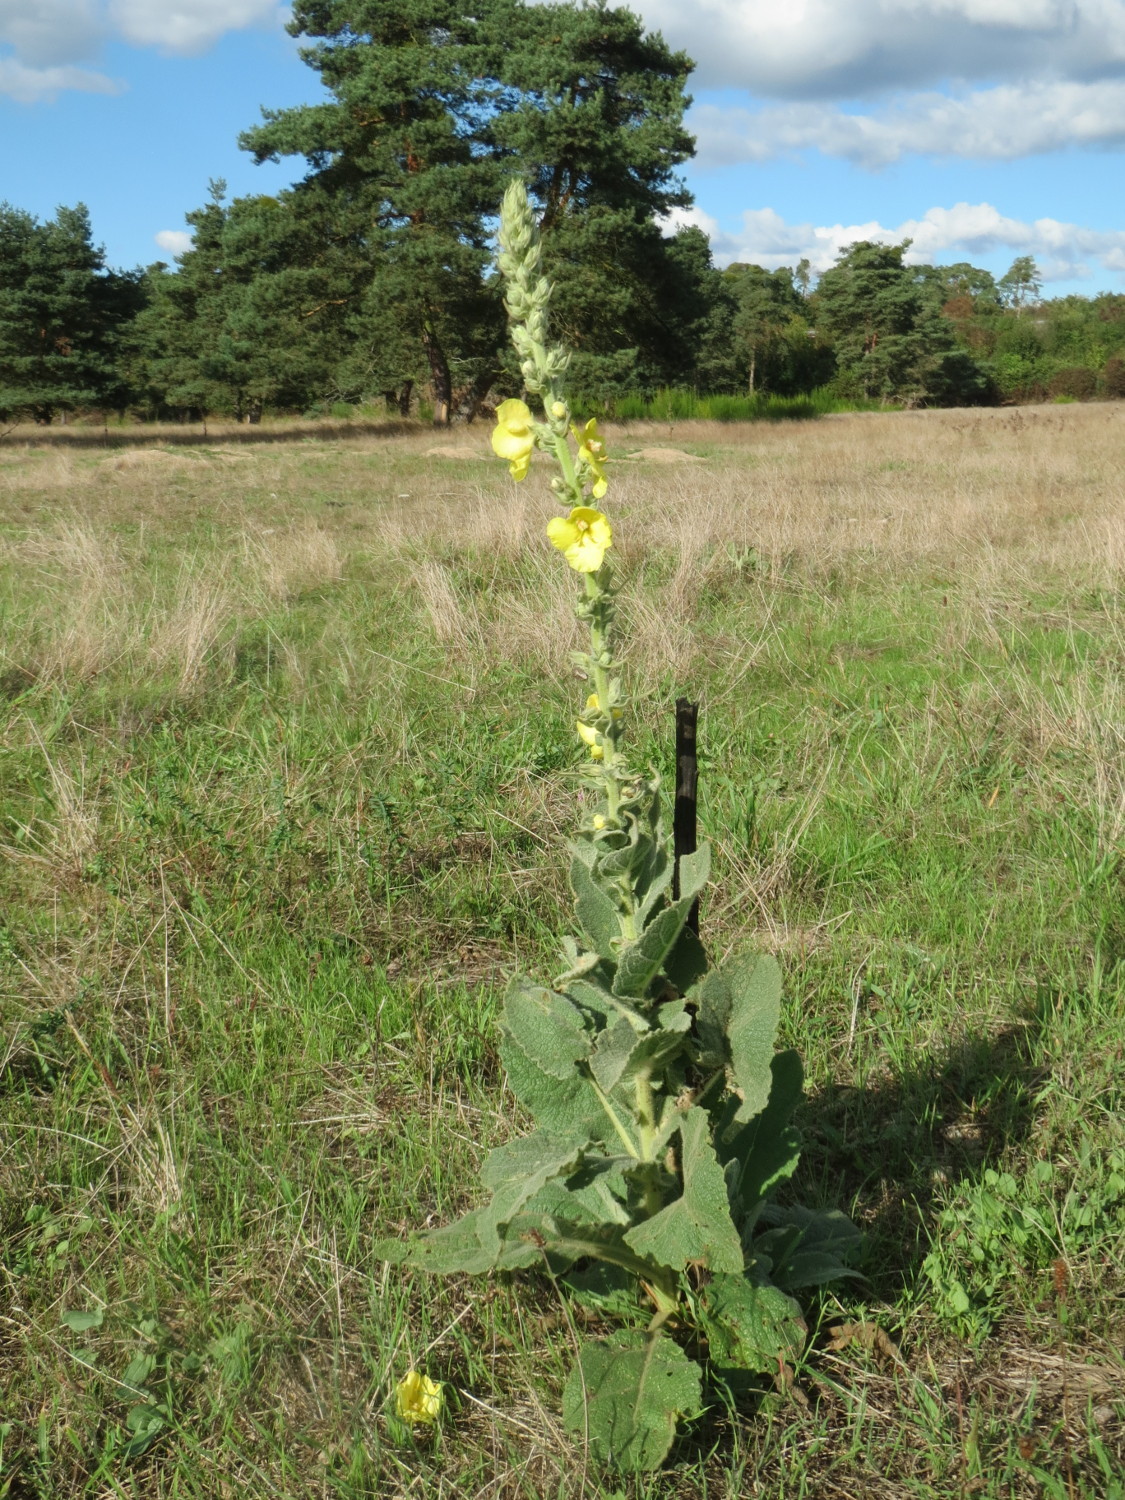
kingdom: Plantae
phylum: Tracheophyta
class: Magnoliopsida
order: Lamiales
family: Scrophulariaceae
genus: Verbascum
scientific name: Verbascum phlomoides
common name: Orange mullein
